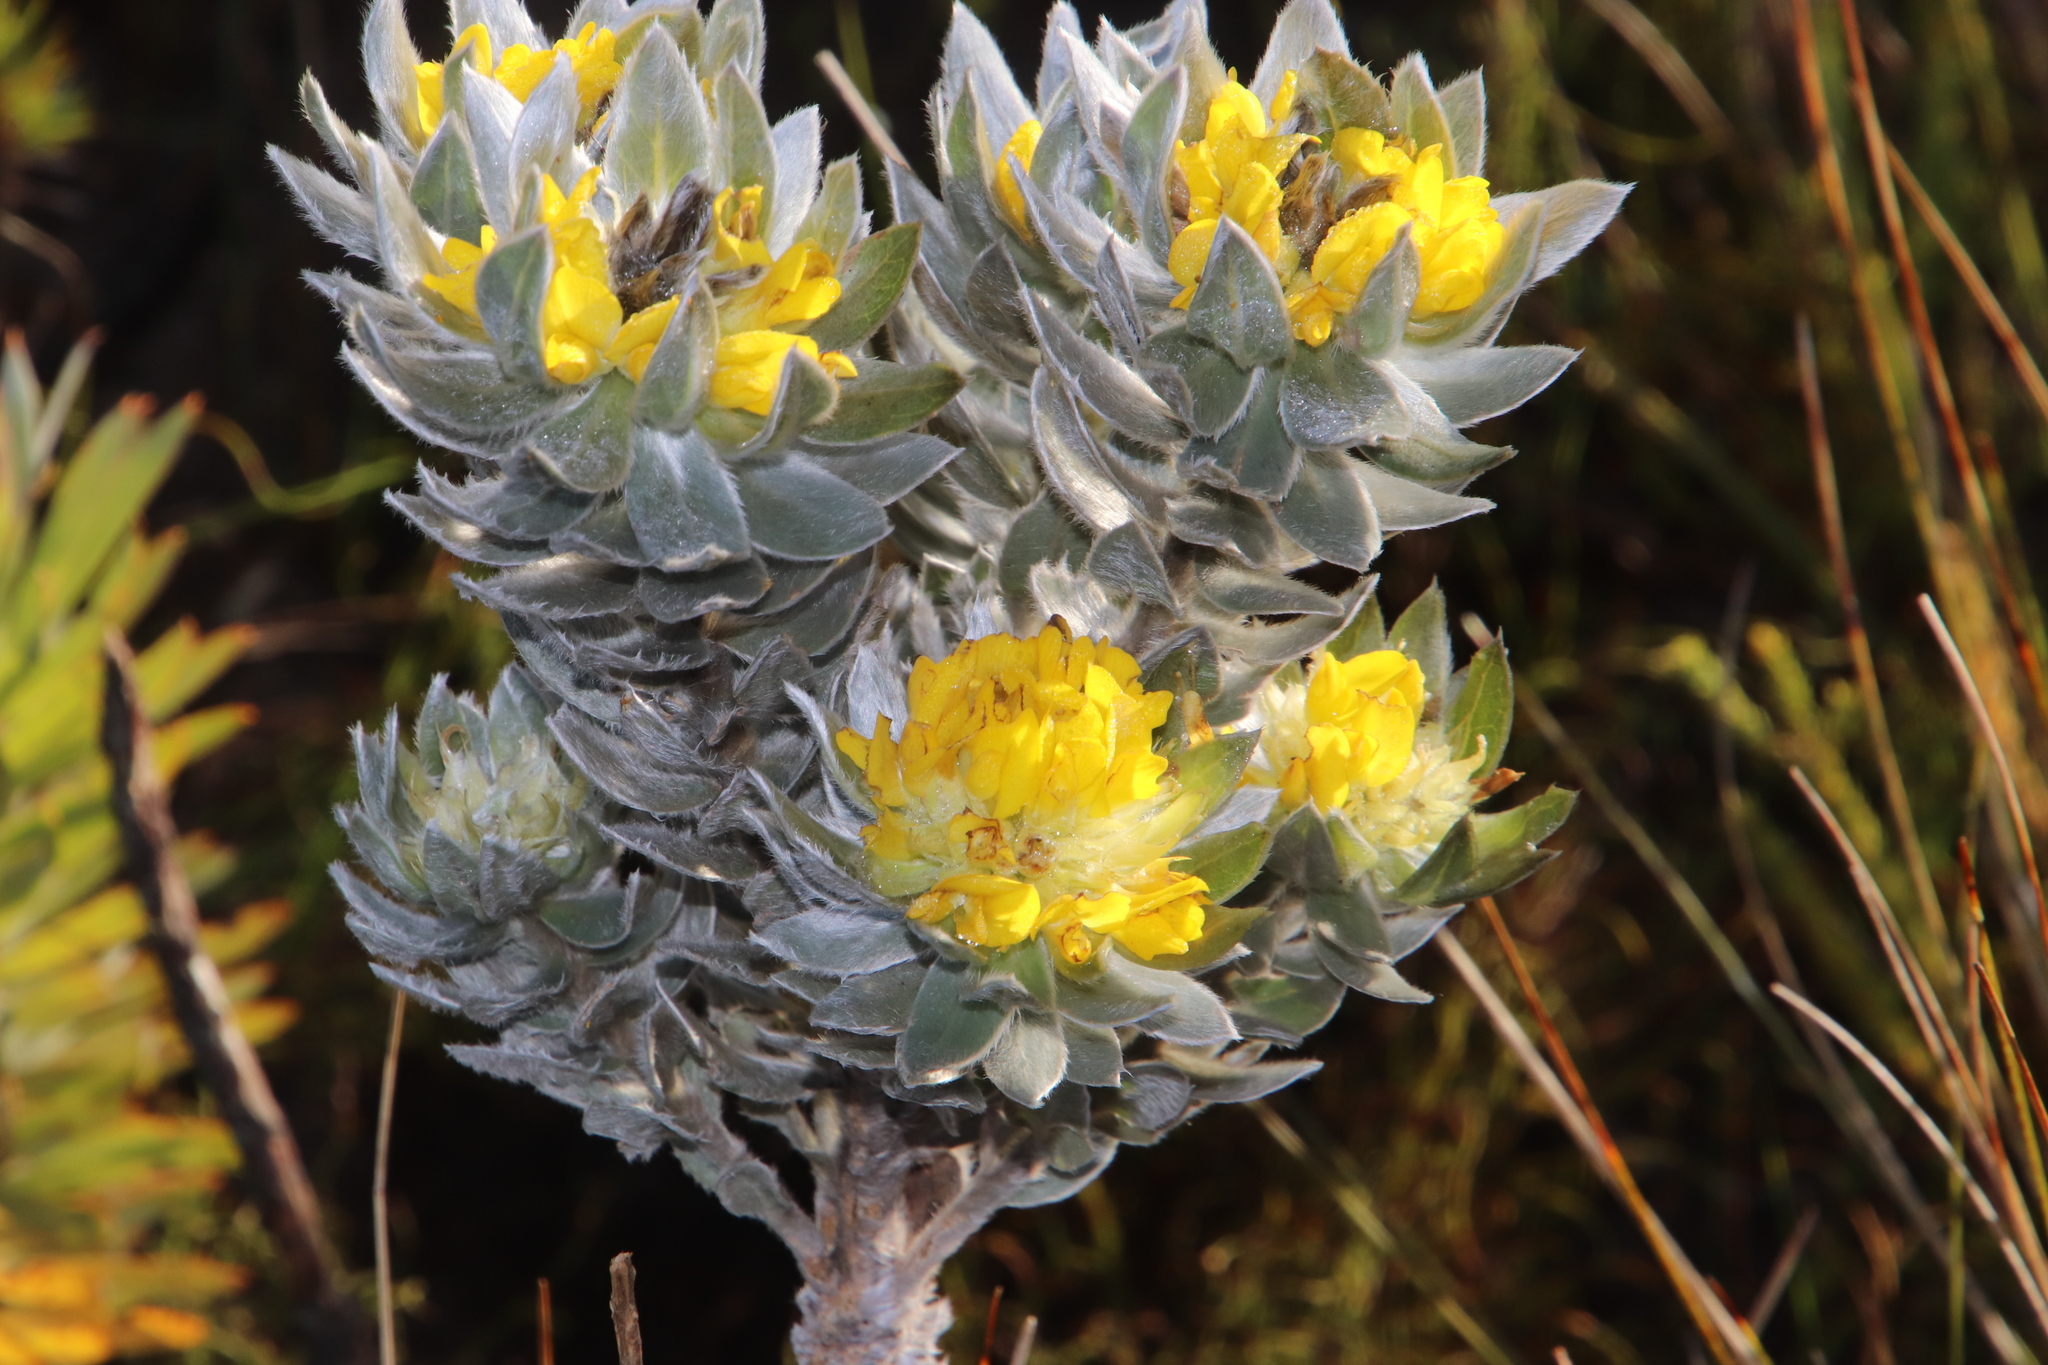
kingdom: Plantae
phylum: Tracheophyta
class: Magnoliopsida
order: Fabales
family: Fabaceae
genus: Xiphotheca
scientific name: Xiphotheca fruticosa
